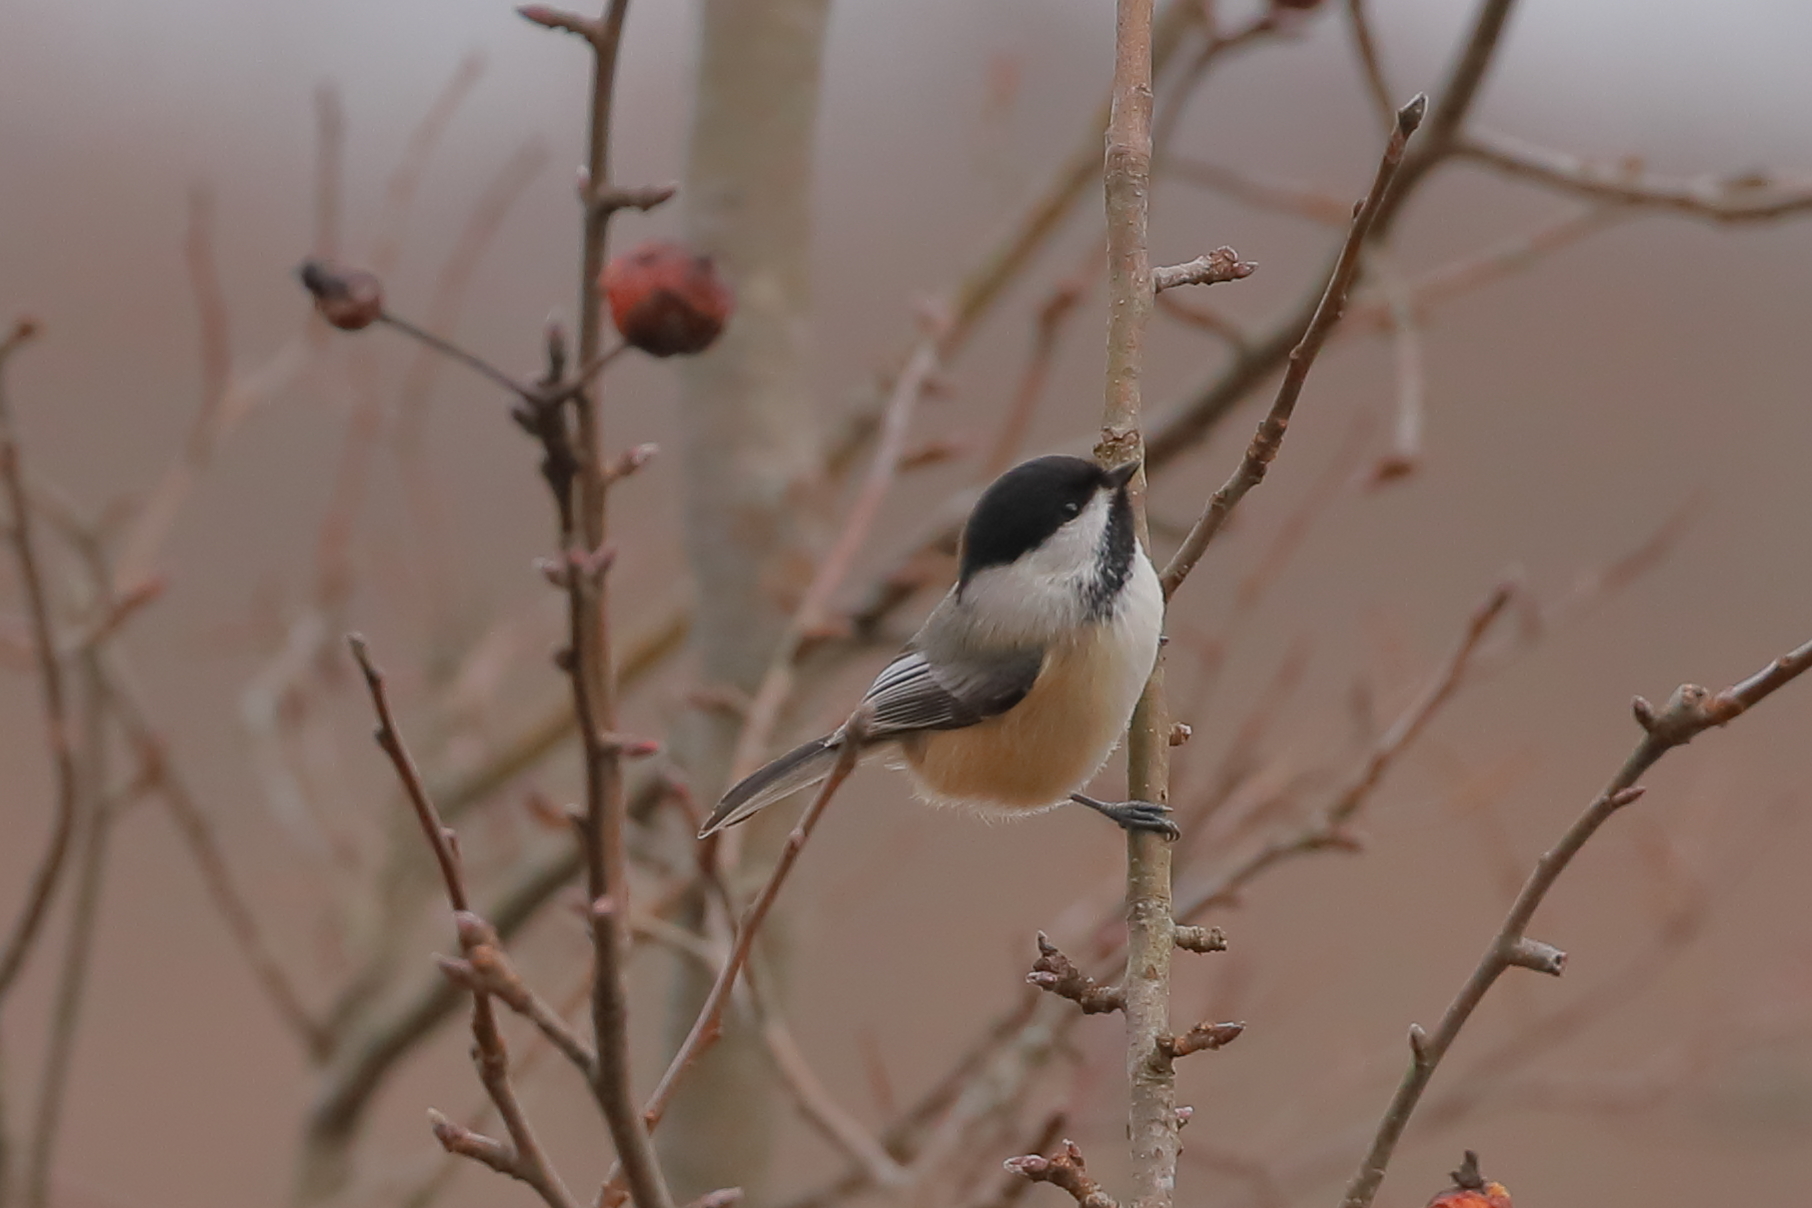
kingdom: Animalia
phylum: Chordata
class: Aves
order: Passeriformes
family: Paridae
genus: Poecile
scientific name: Poecile atricapillus
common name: Black-capped chickadee
